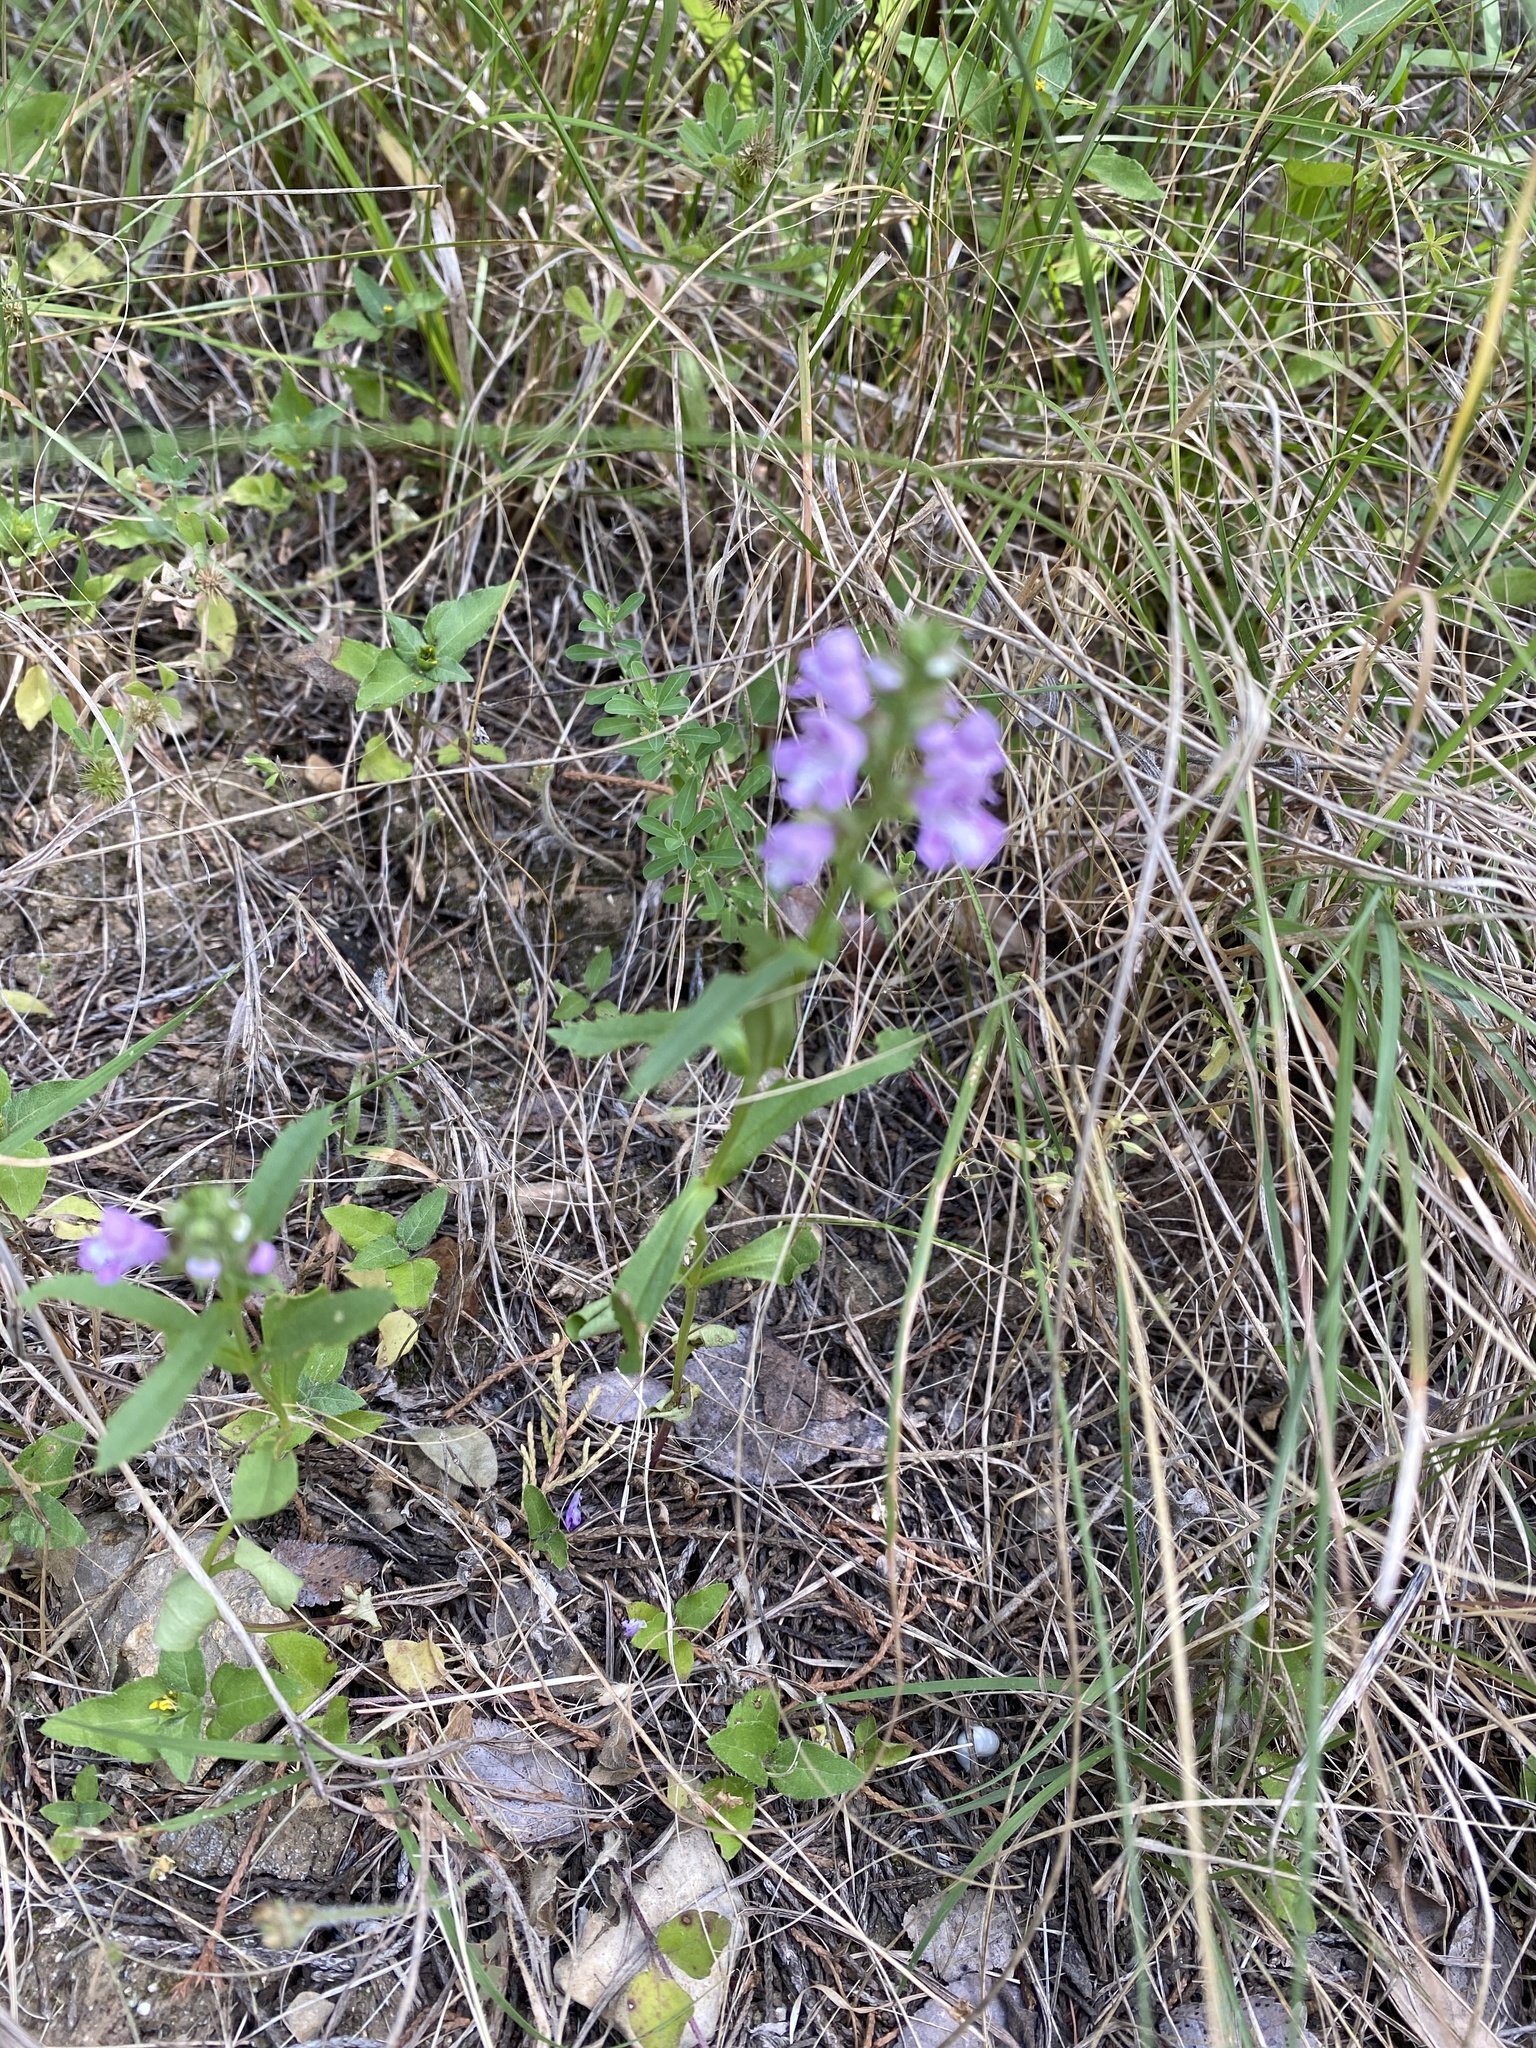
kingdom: Plantae
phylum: Tracheophyta
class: Magnoliopsida
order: Lamiales
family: Lamiaceae
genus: Warnockia
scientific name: Warnockia scutellarioides
